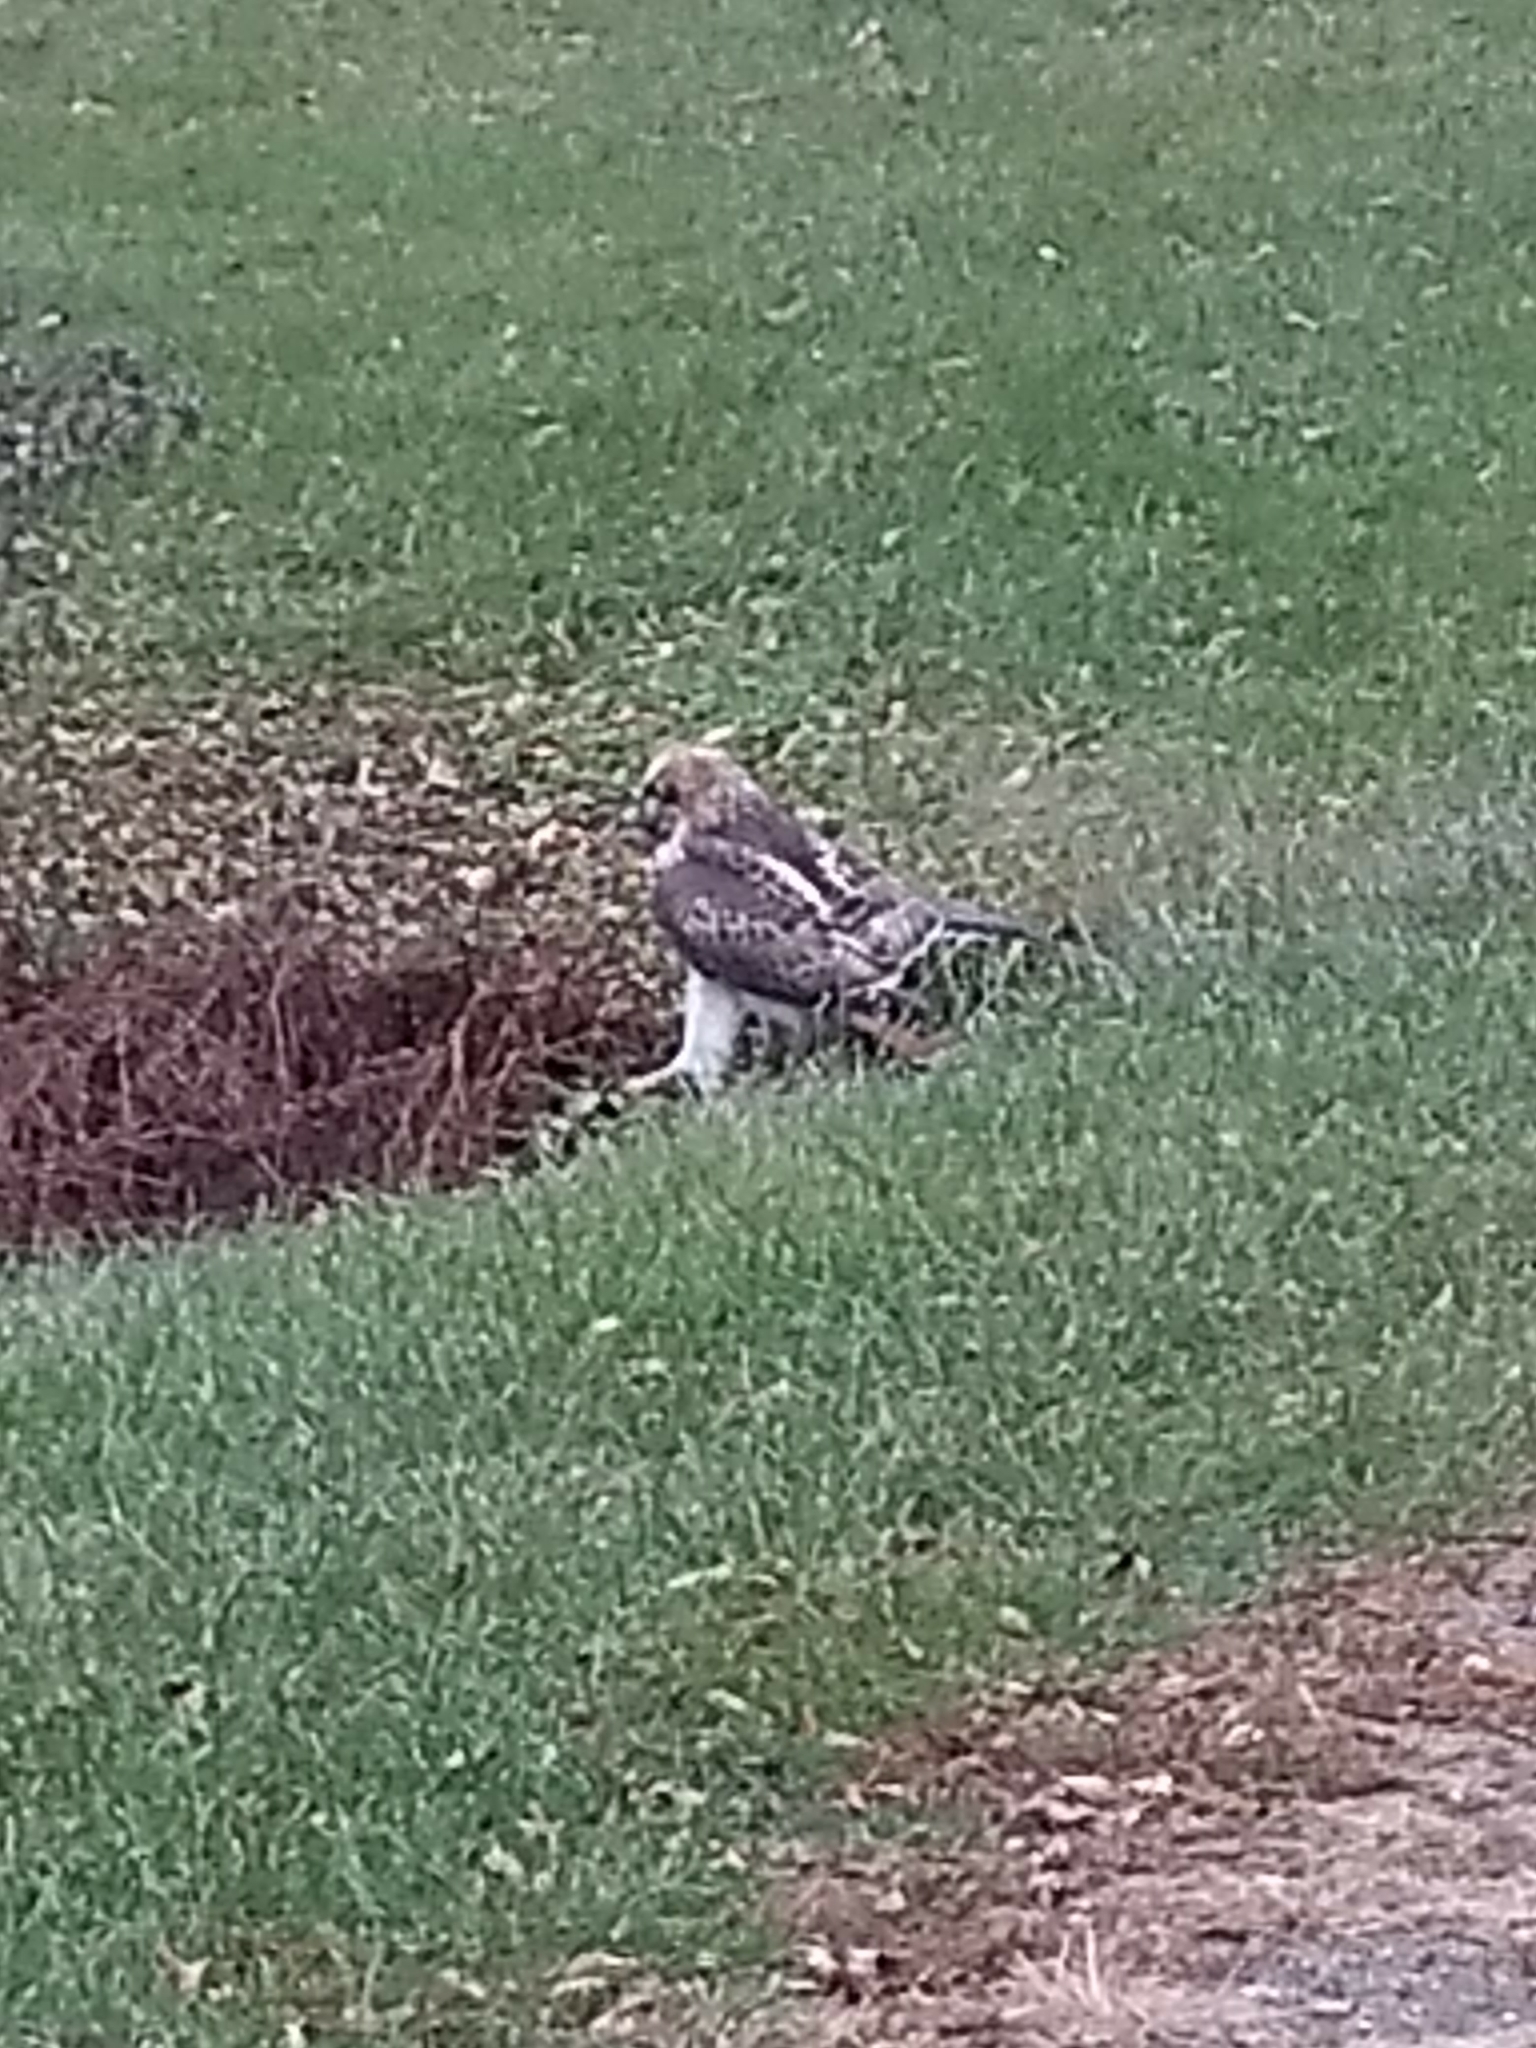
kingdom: Animalia
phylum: Chordata
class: Aves
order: Accipitriformes
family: Accipitridae
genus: Buteo
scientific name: Buteo jamaicensis
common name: Red-tailed hawk
